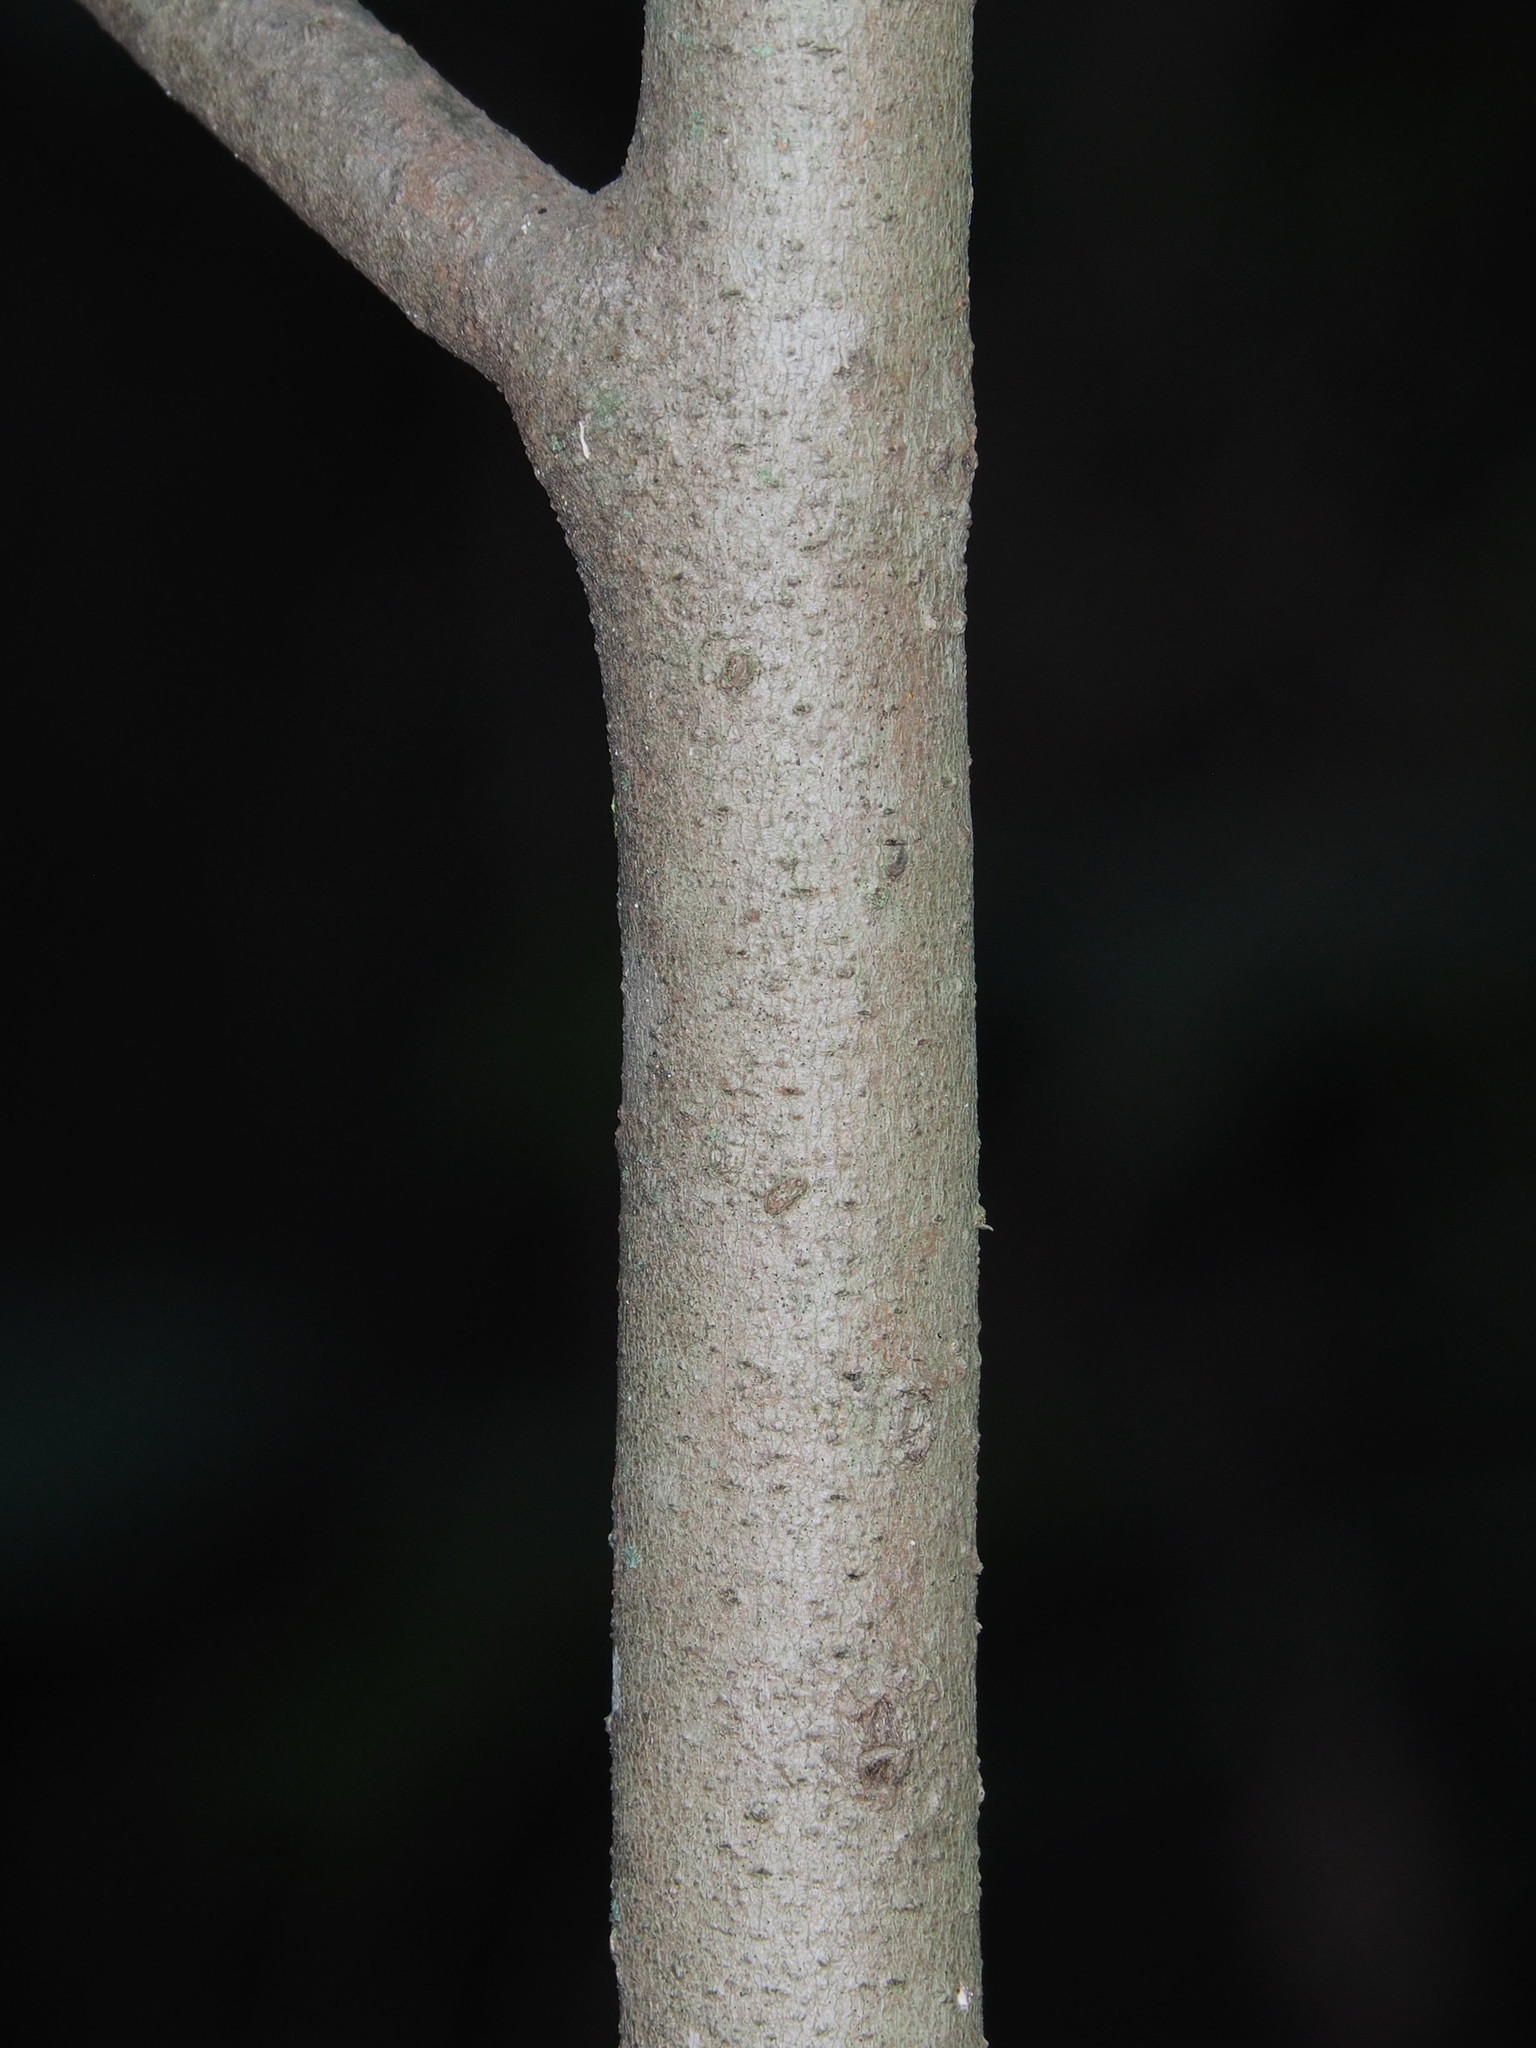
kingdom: Plantae
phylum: Tracheophyta
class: Magnoliopsida
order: Magnoliales
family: Annonaceae
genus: Asimina
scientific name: Asimina triloba
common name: Dog-banana
